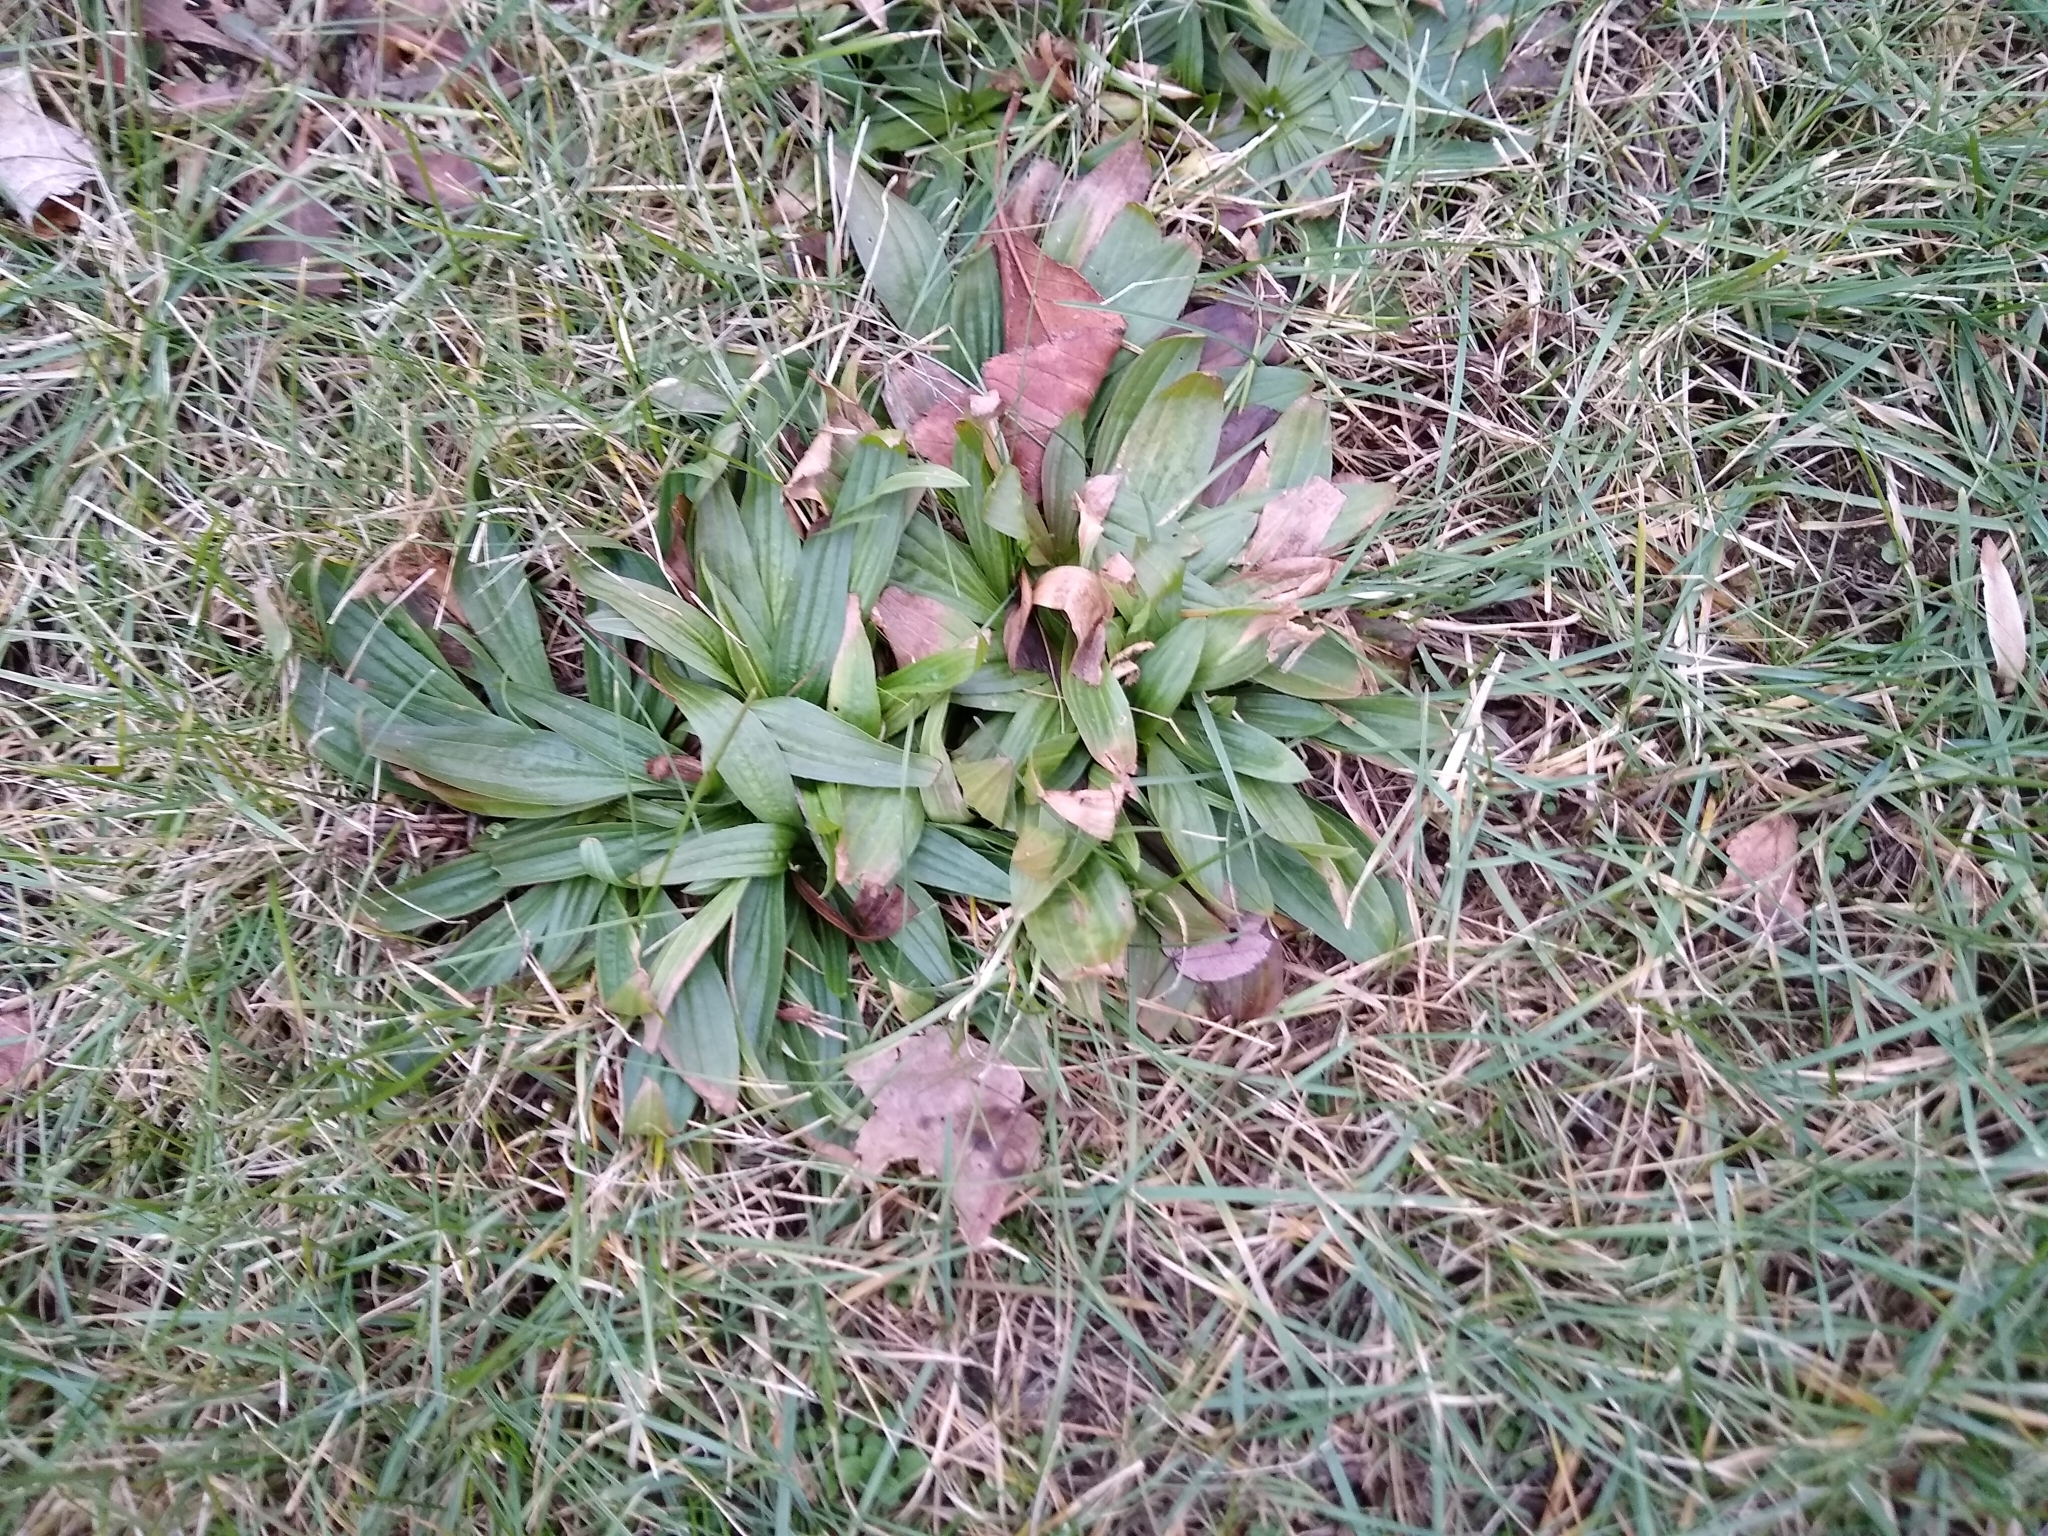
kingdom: Plantae
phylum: Tracheophyta
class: Magnoliopsida
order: Lamiales
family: Plantaginaceae
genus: Plantago
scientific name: Plantago lanceolata
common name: Ribwort plantain
